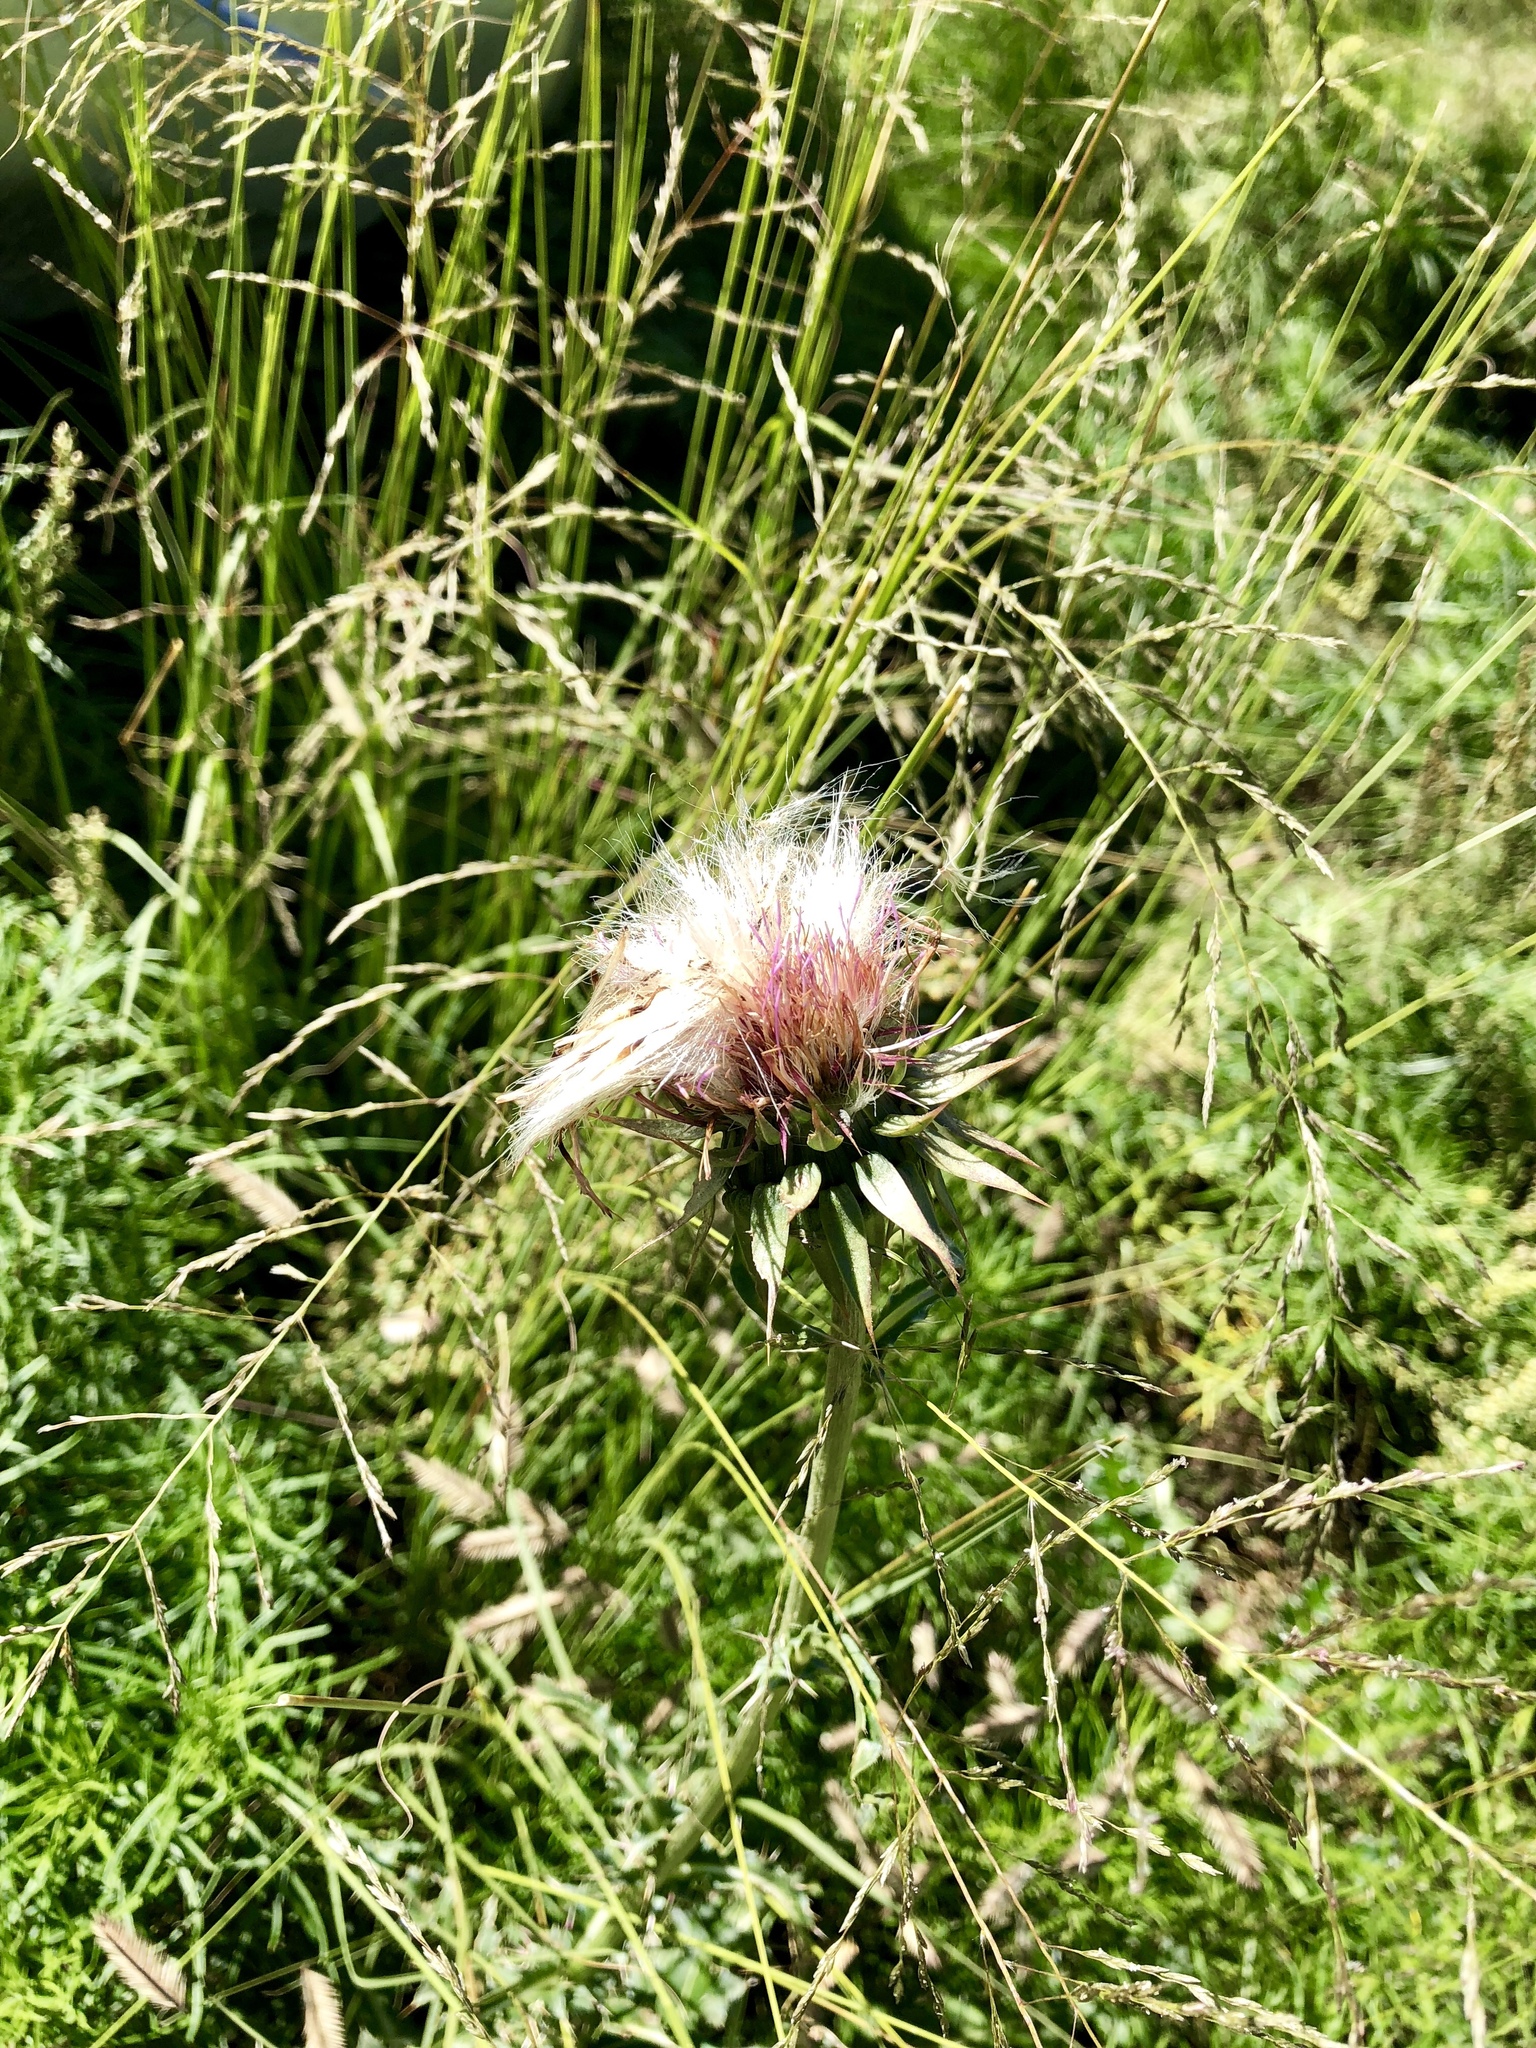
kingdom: Plantae
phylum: Tracheophyta
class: Magnoliopsida
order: Asterales
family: Asteraceae
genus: Carduus
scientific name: Carduus nutans
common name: Musk thistle
